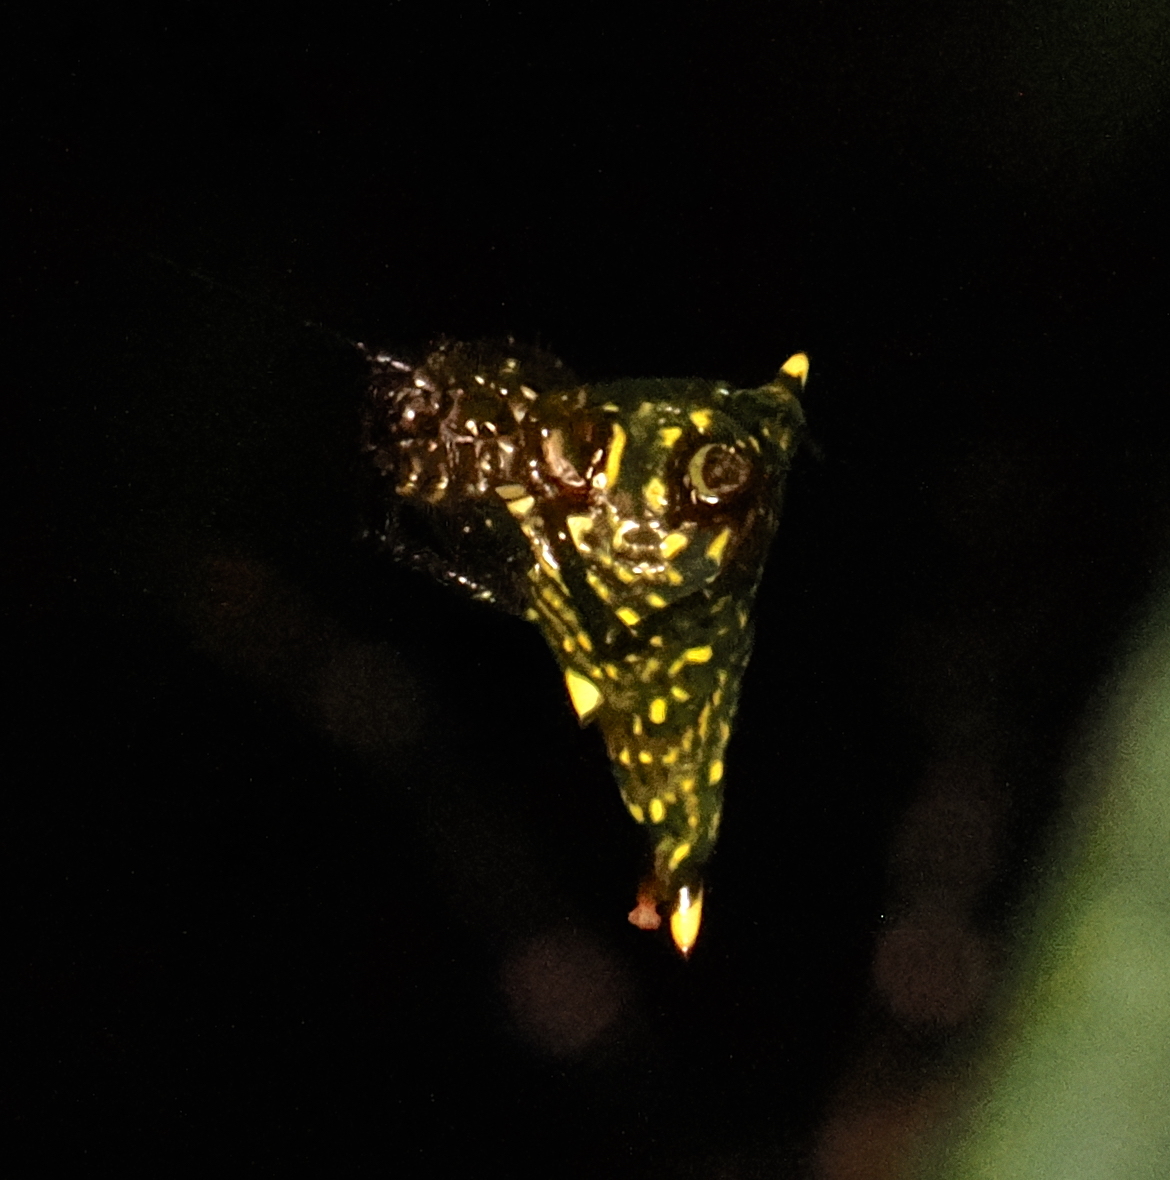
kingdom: Animalia
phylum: Arthropoda
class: Arachnida
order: Araneae
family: Araneidae
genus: Micrathena
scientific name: Micrathena lucasi
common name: Orb weavers
